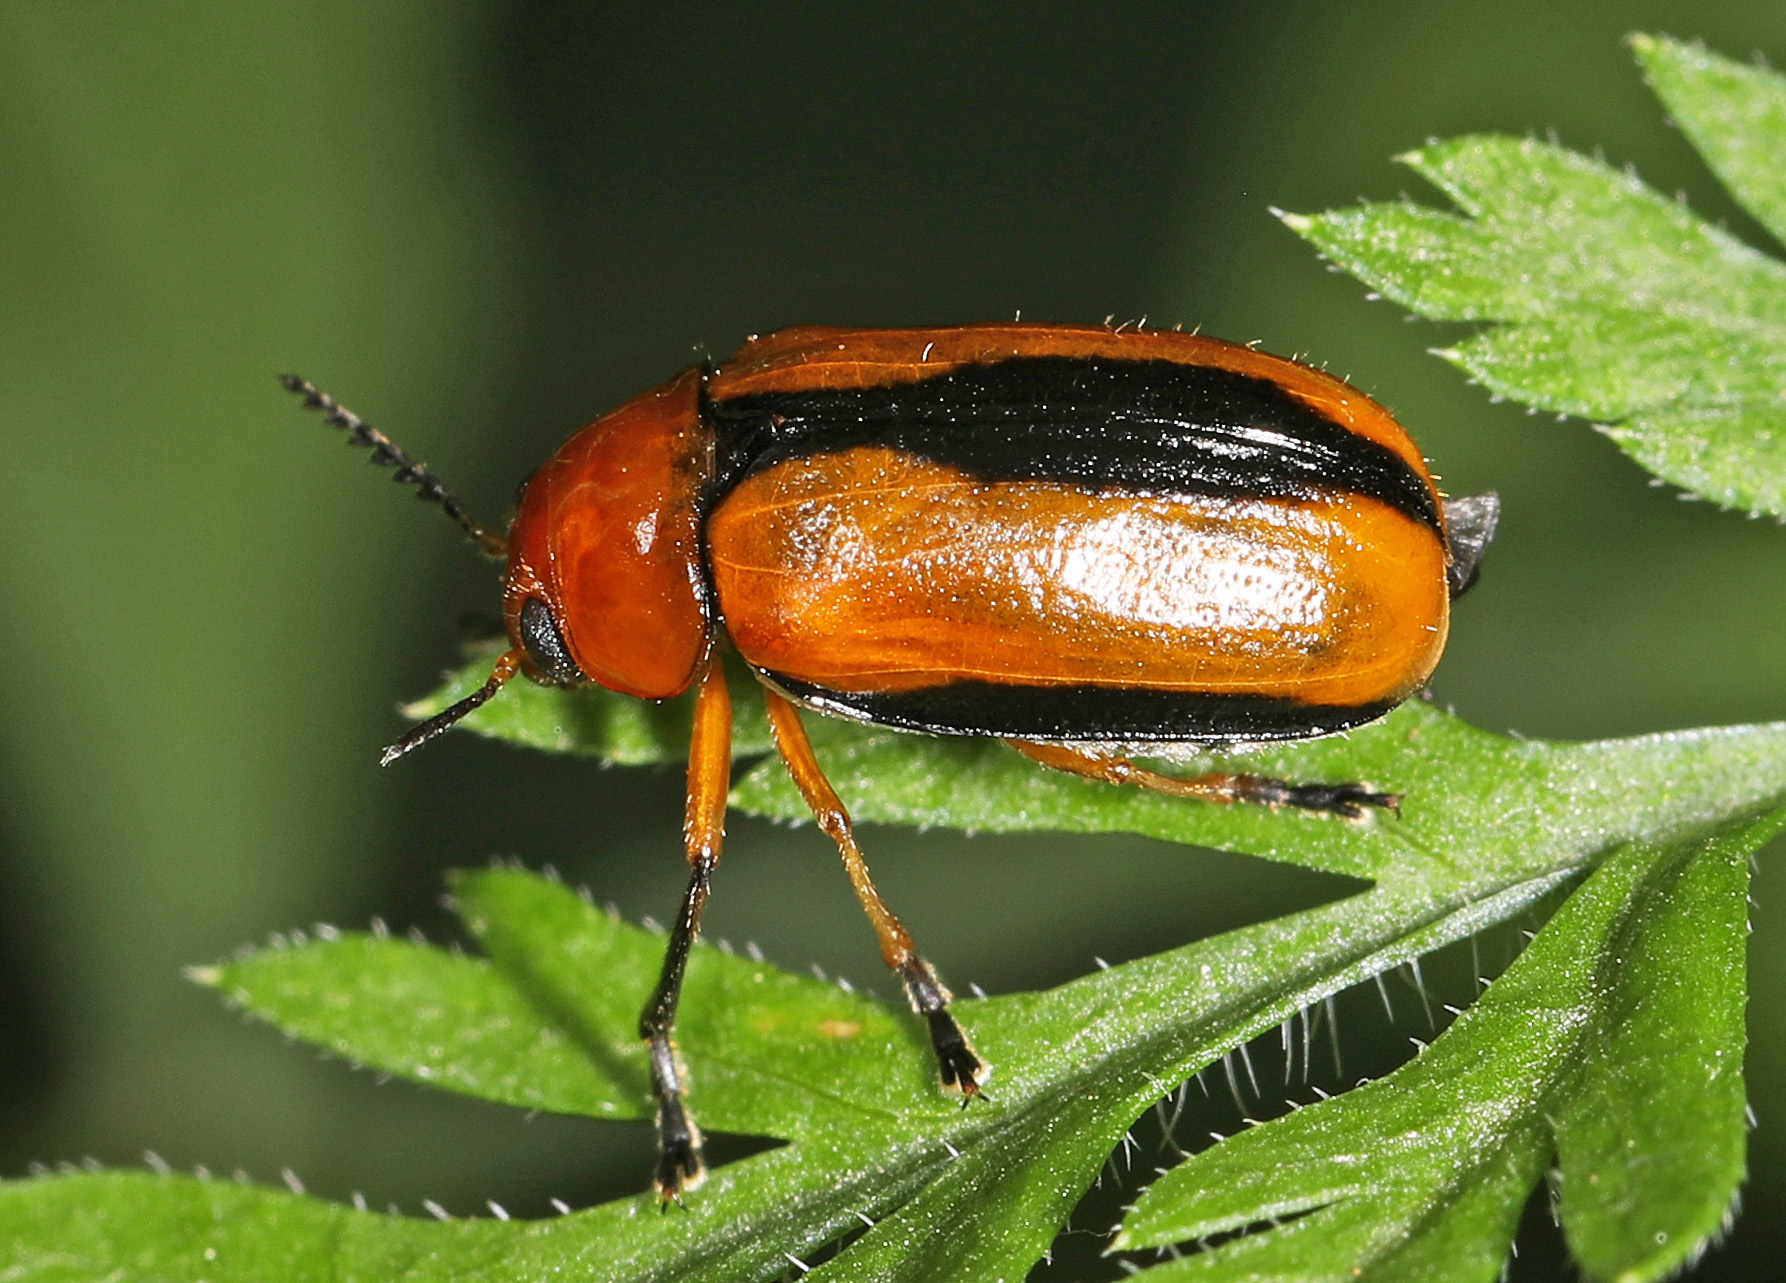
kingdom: Animalia
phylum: Arthropoda
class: Insecta
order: Coleoptera
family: Chrysomelidae
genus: Anomoea
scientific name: Anomoea laticlavia
